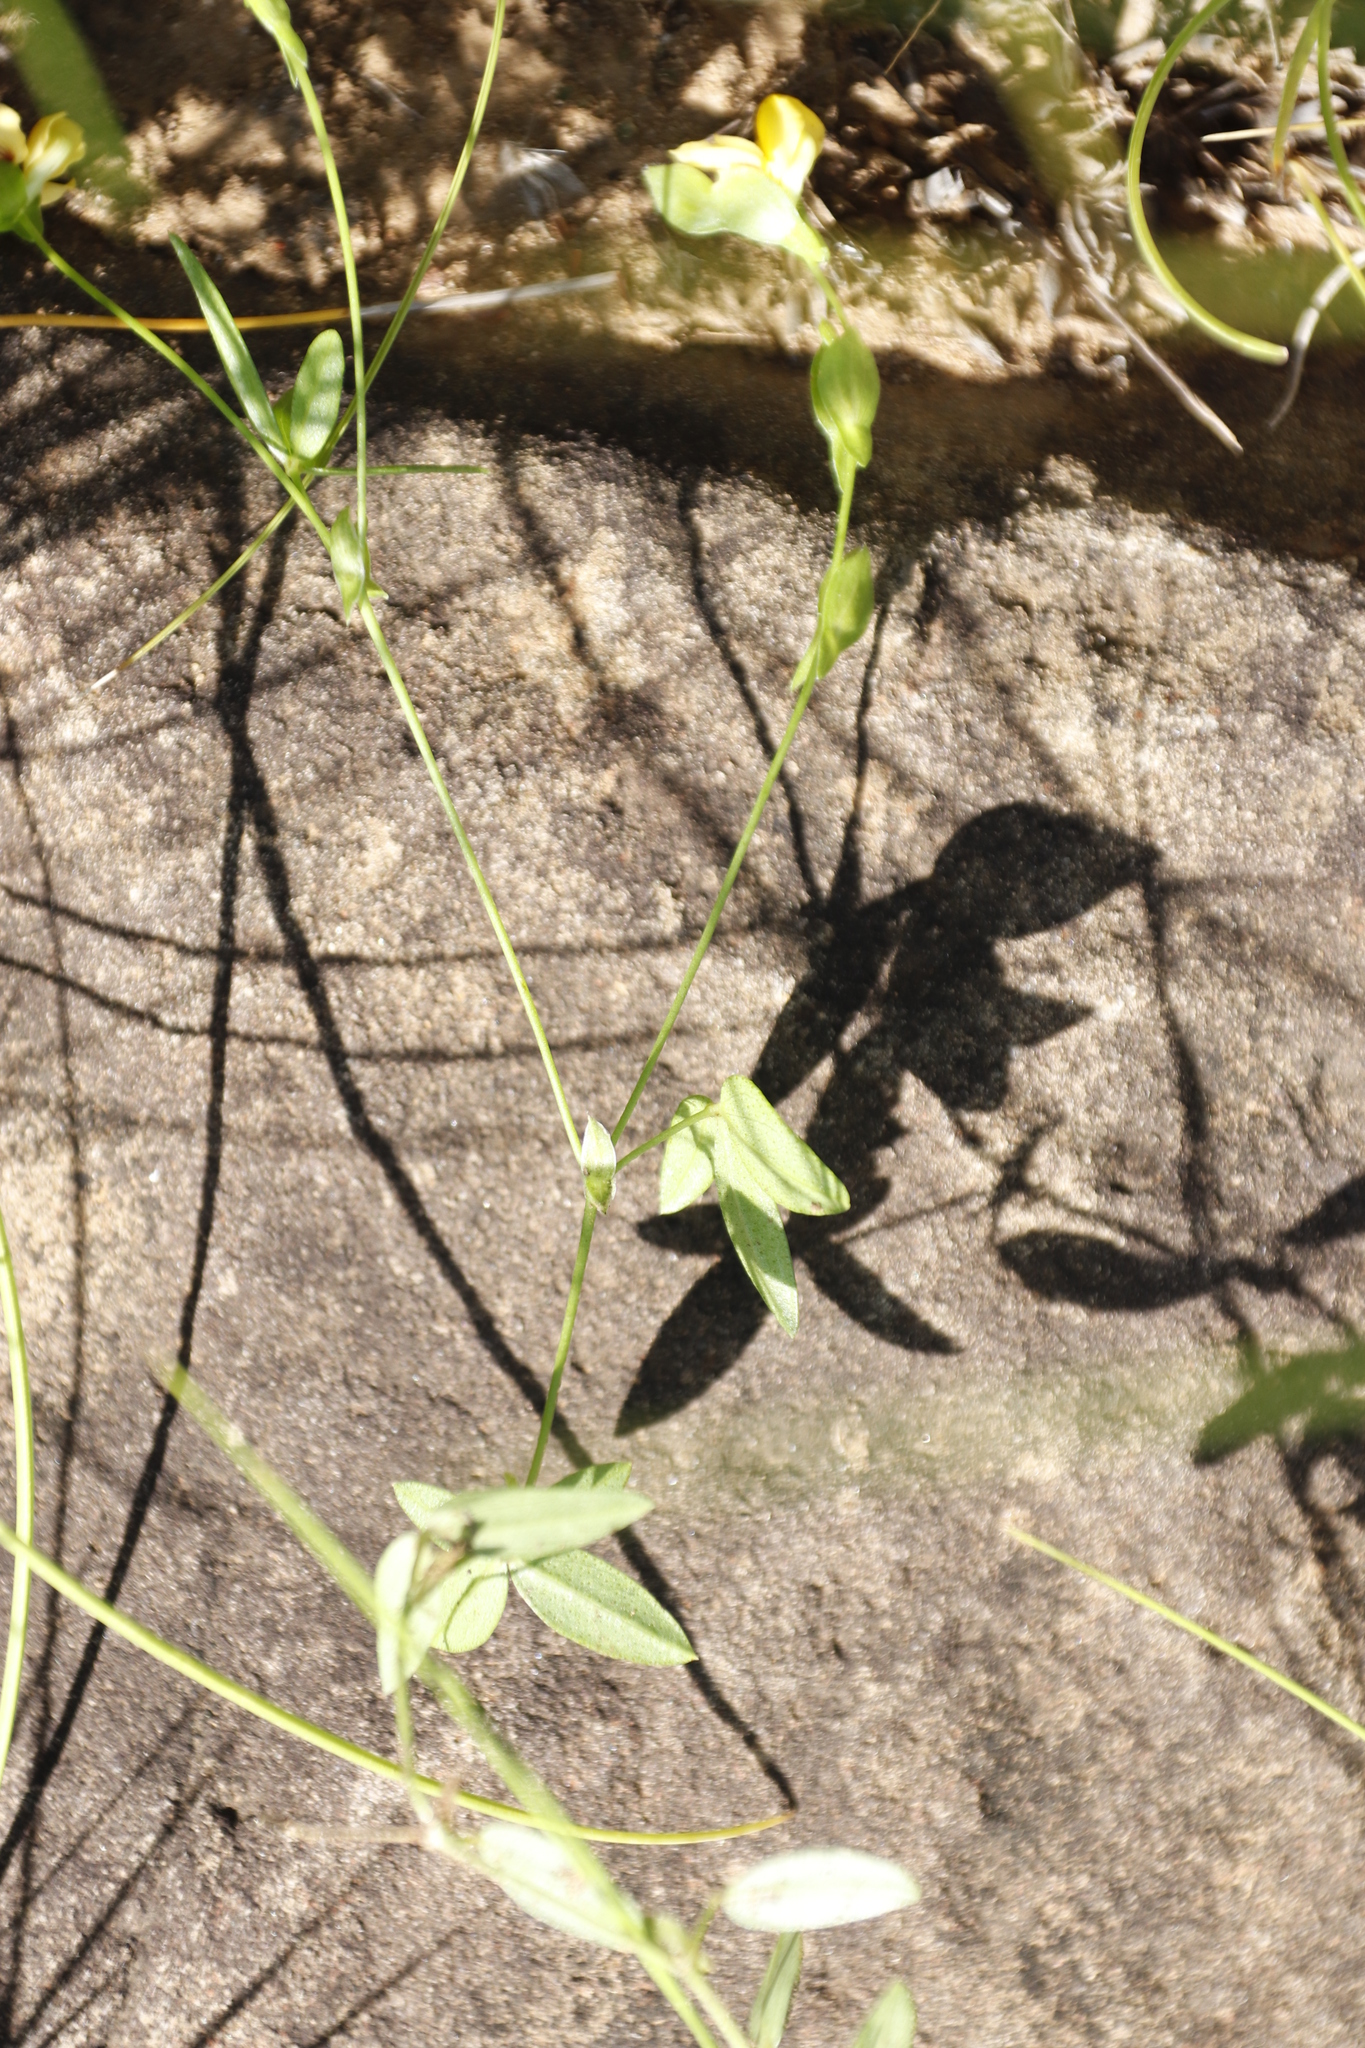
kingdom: Plantae
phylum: Tracheophyta
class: Magnoliopsida
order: Fabales
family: Fabaceae
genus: Zornia
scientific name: Zornia capensis
